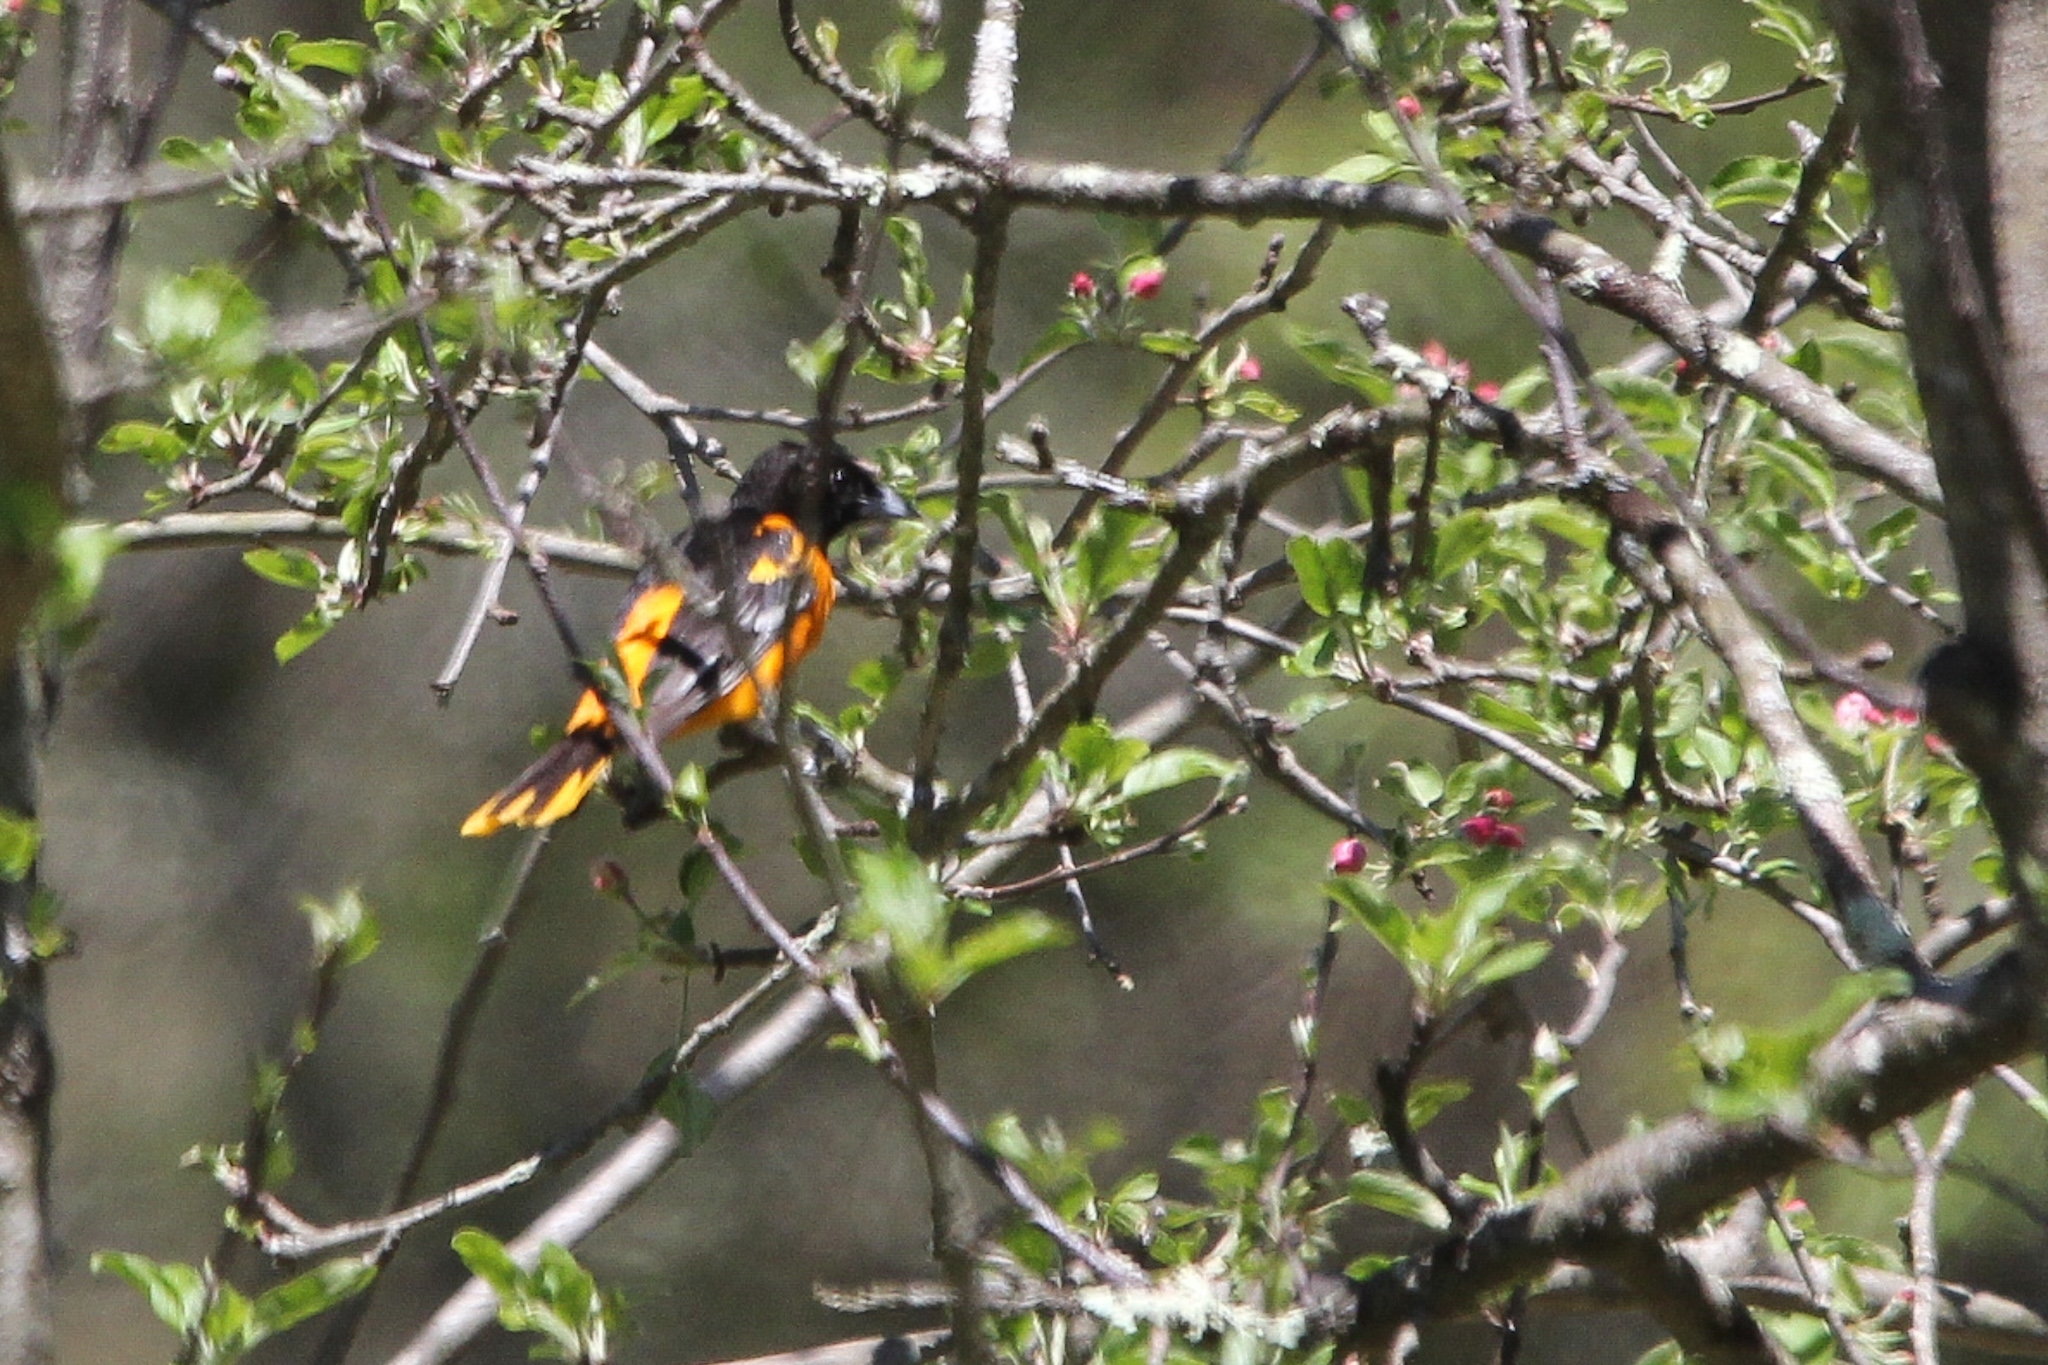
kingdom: Animalia
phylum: Chordata
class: Aves
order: Passeriformes
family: Icteridae
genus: Icterus
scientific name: Icterus galbula
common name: Baltimore oriole
